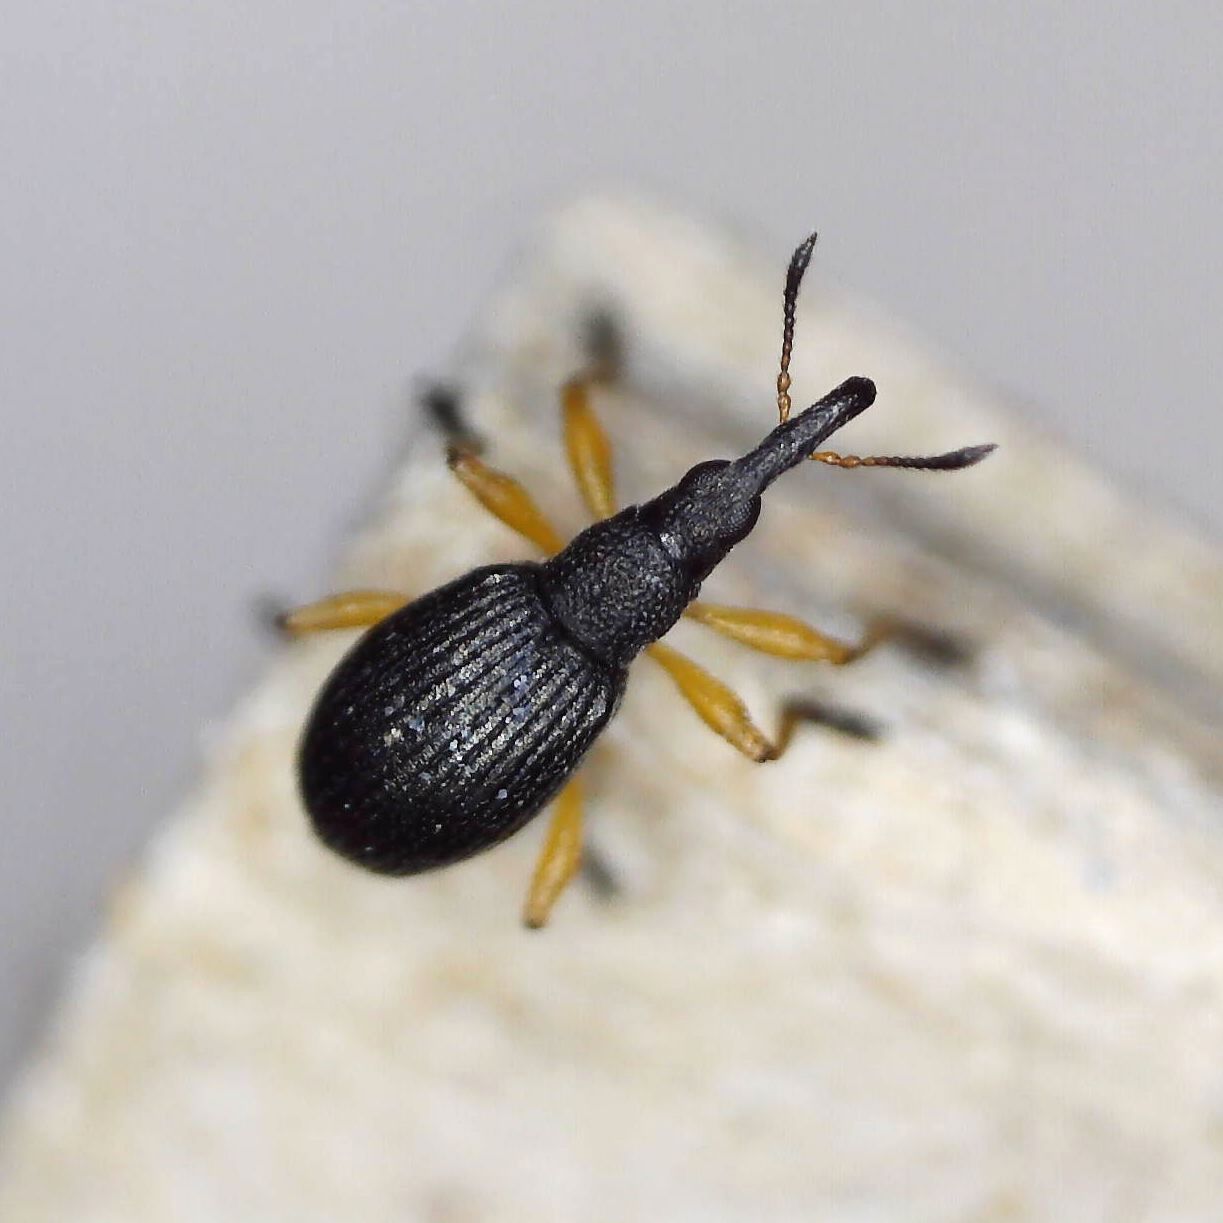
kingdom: Animalia
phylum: Arthropoda
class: Insecta
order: Coleoptera
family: Apionidae
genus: Protapion
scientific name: Protapion fulvipes
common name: White clover seed weevil
